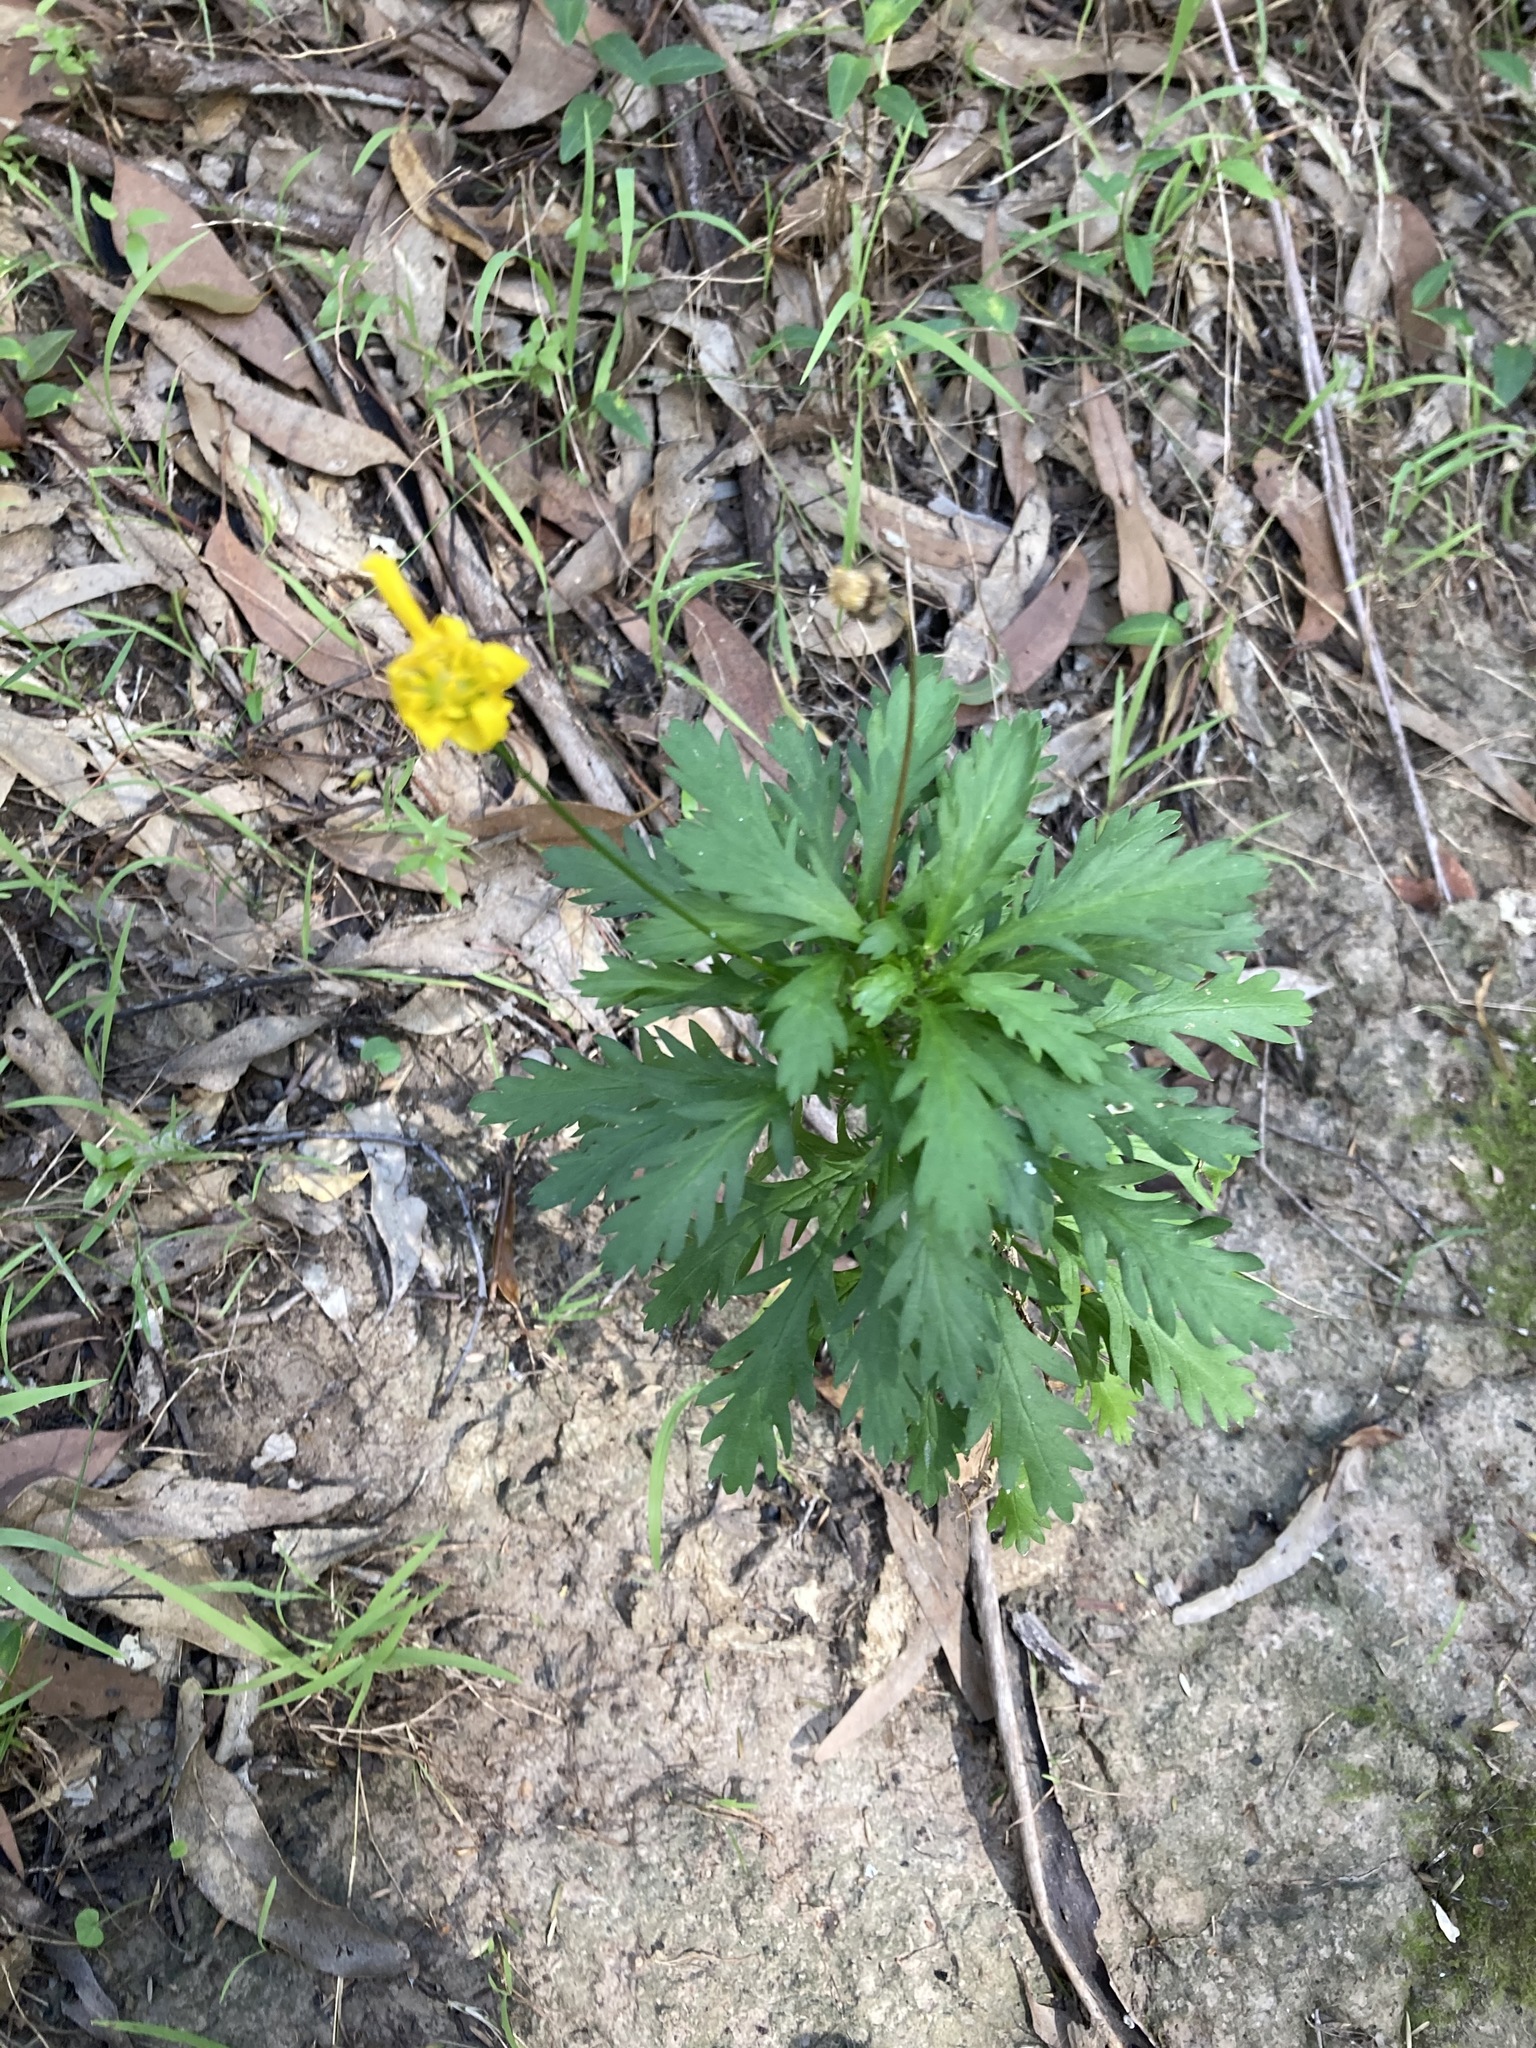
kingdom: Plantae
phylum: Tracheophyta
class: Magnoliopsida
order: Asterales
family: Asteraceae
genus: Euryops
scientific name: Euryops chrysanthemoides
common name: Bull's eye
